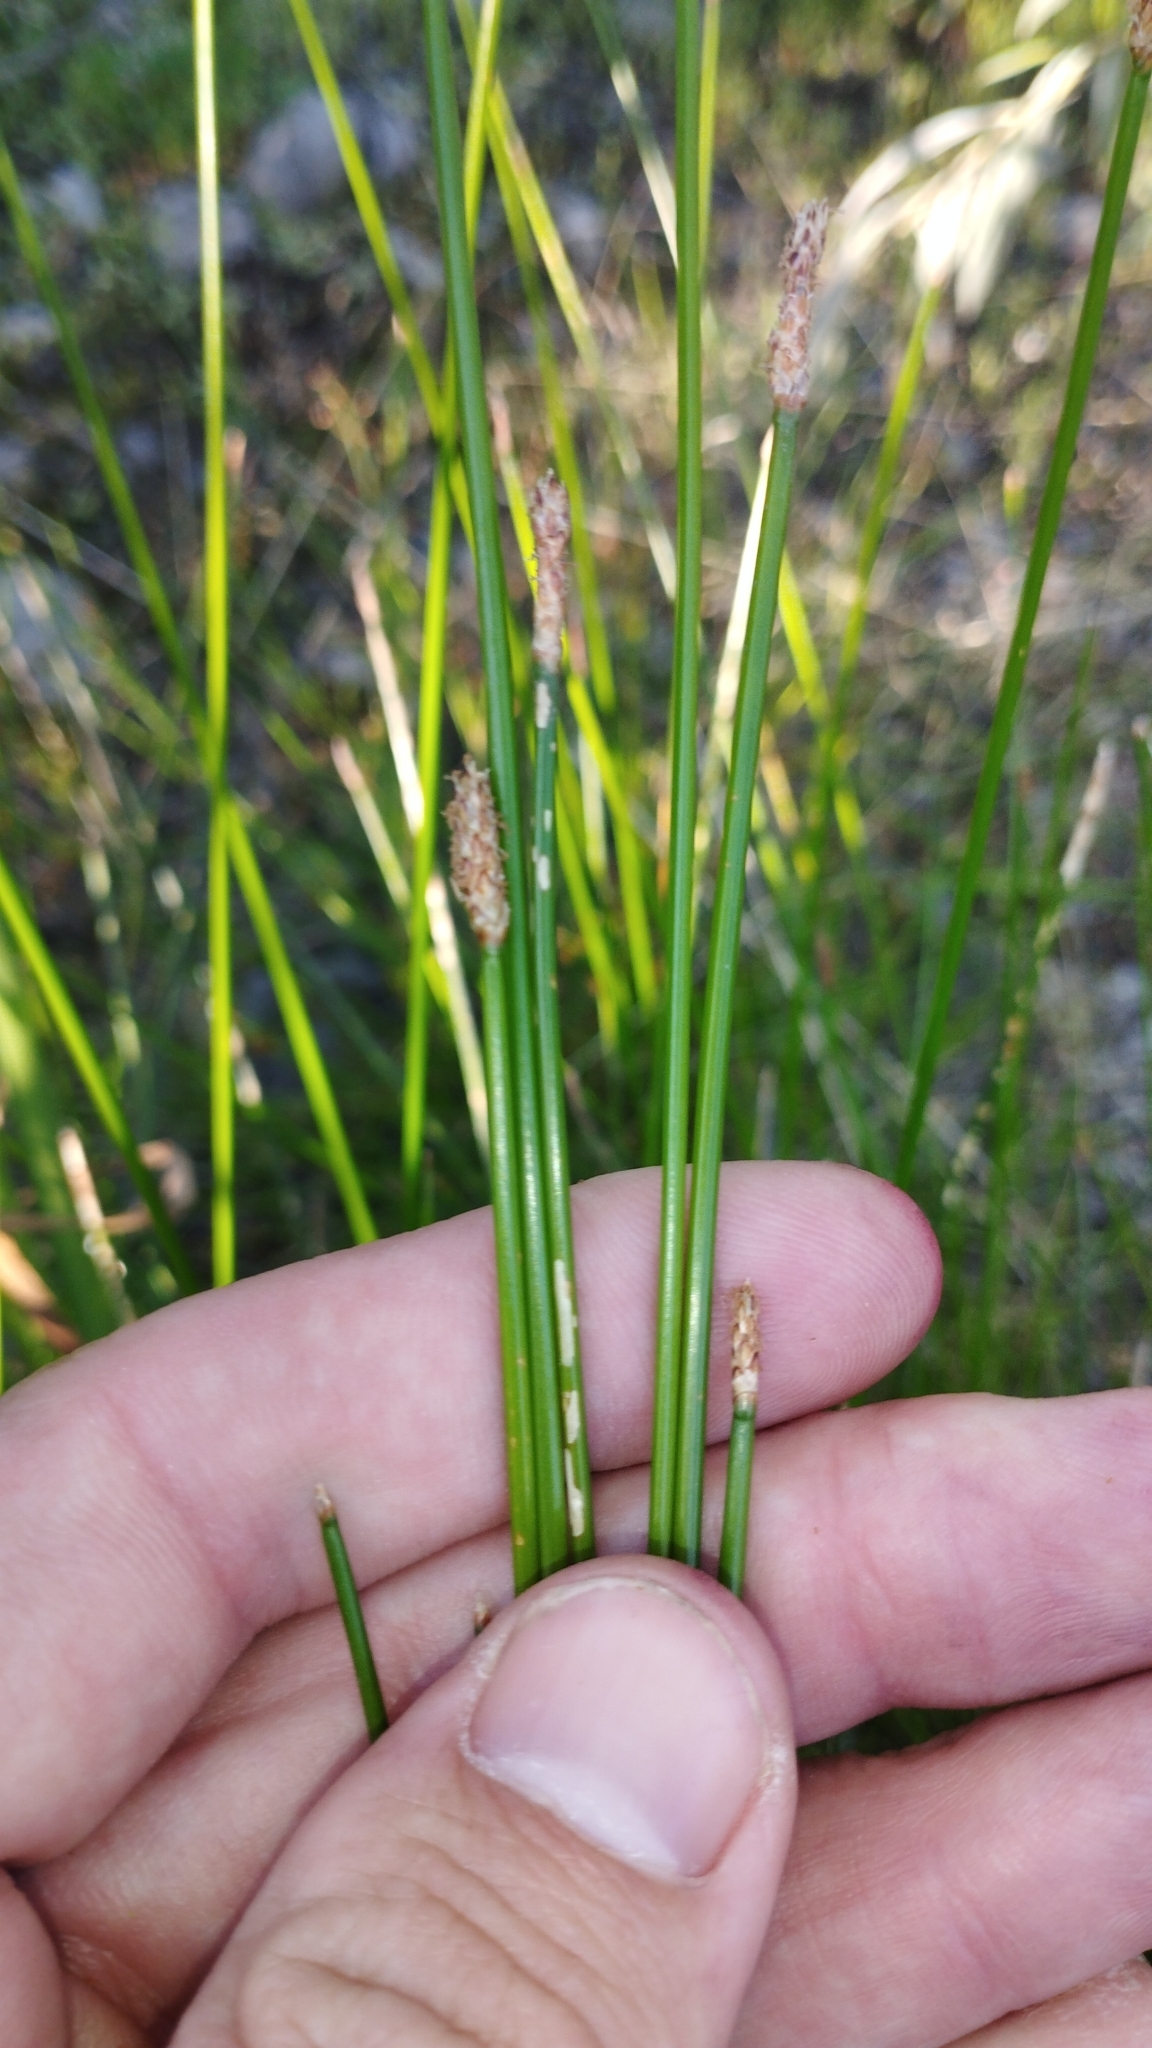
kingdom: Plantae
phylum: Tracheophyta
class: Liliopsida
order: Poales
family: Cyperaceae
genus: Eleocharis
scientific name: Eleocharis acuta
